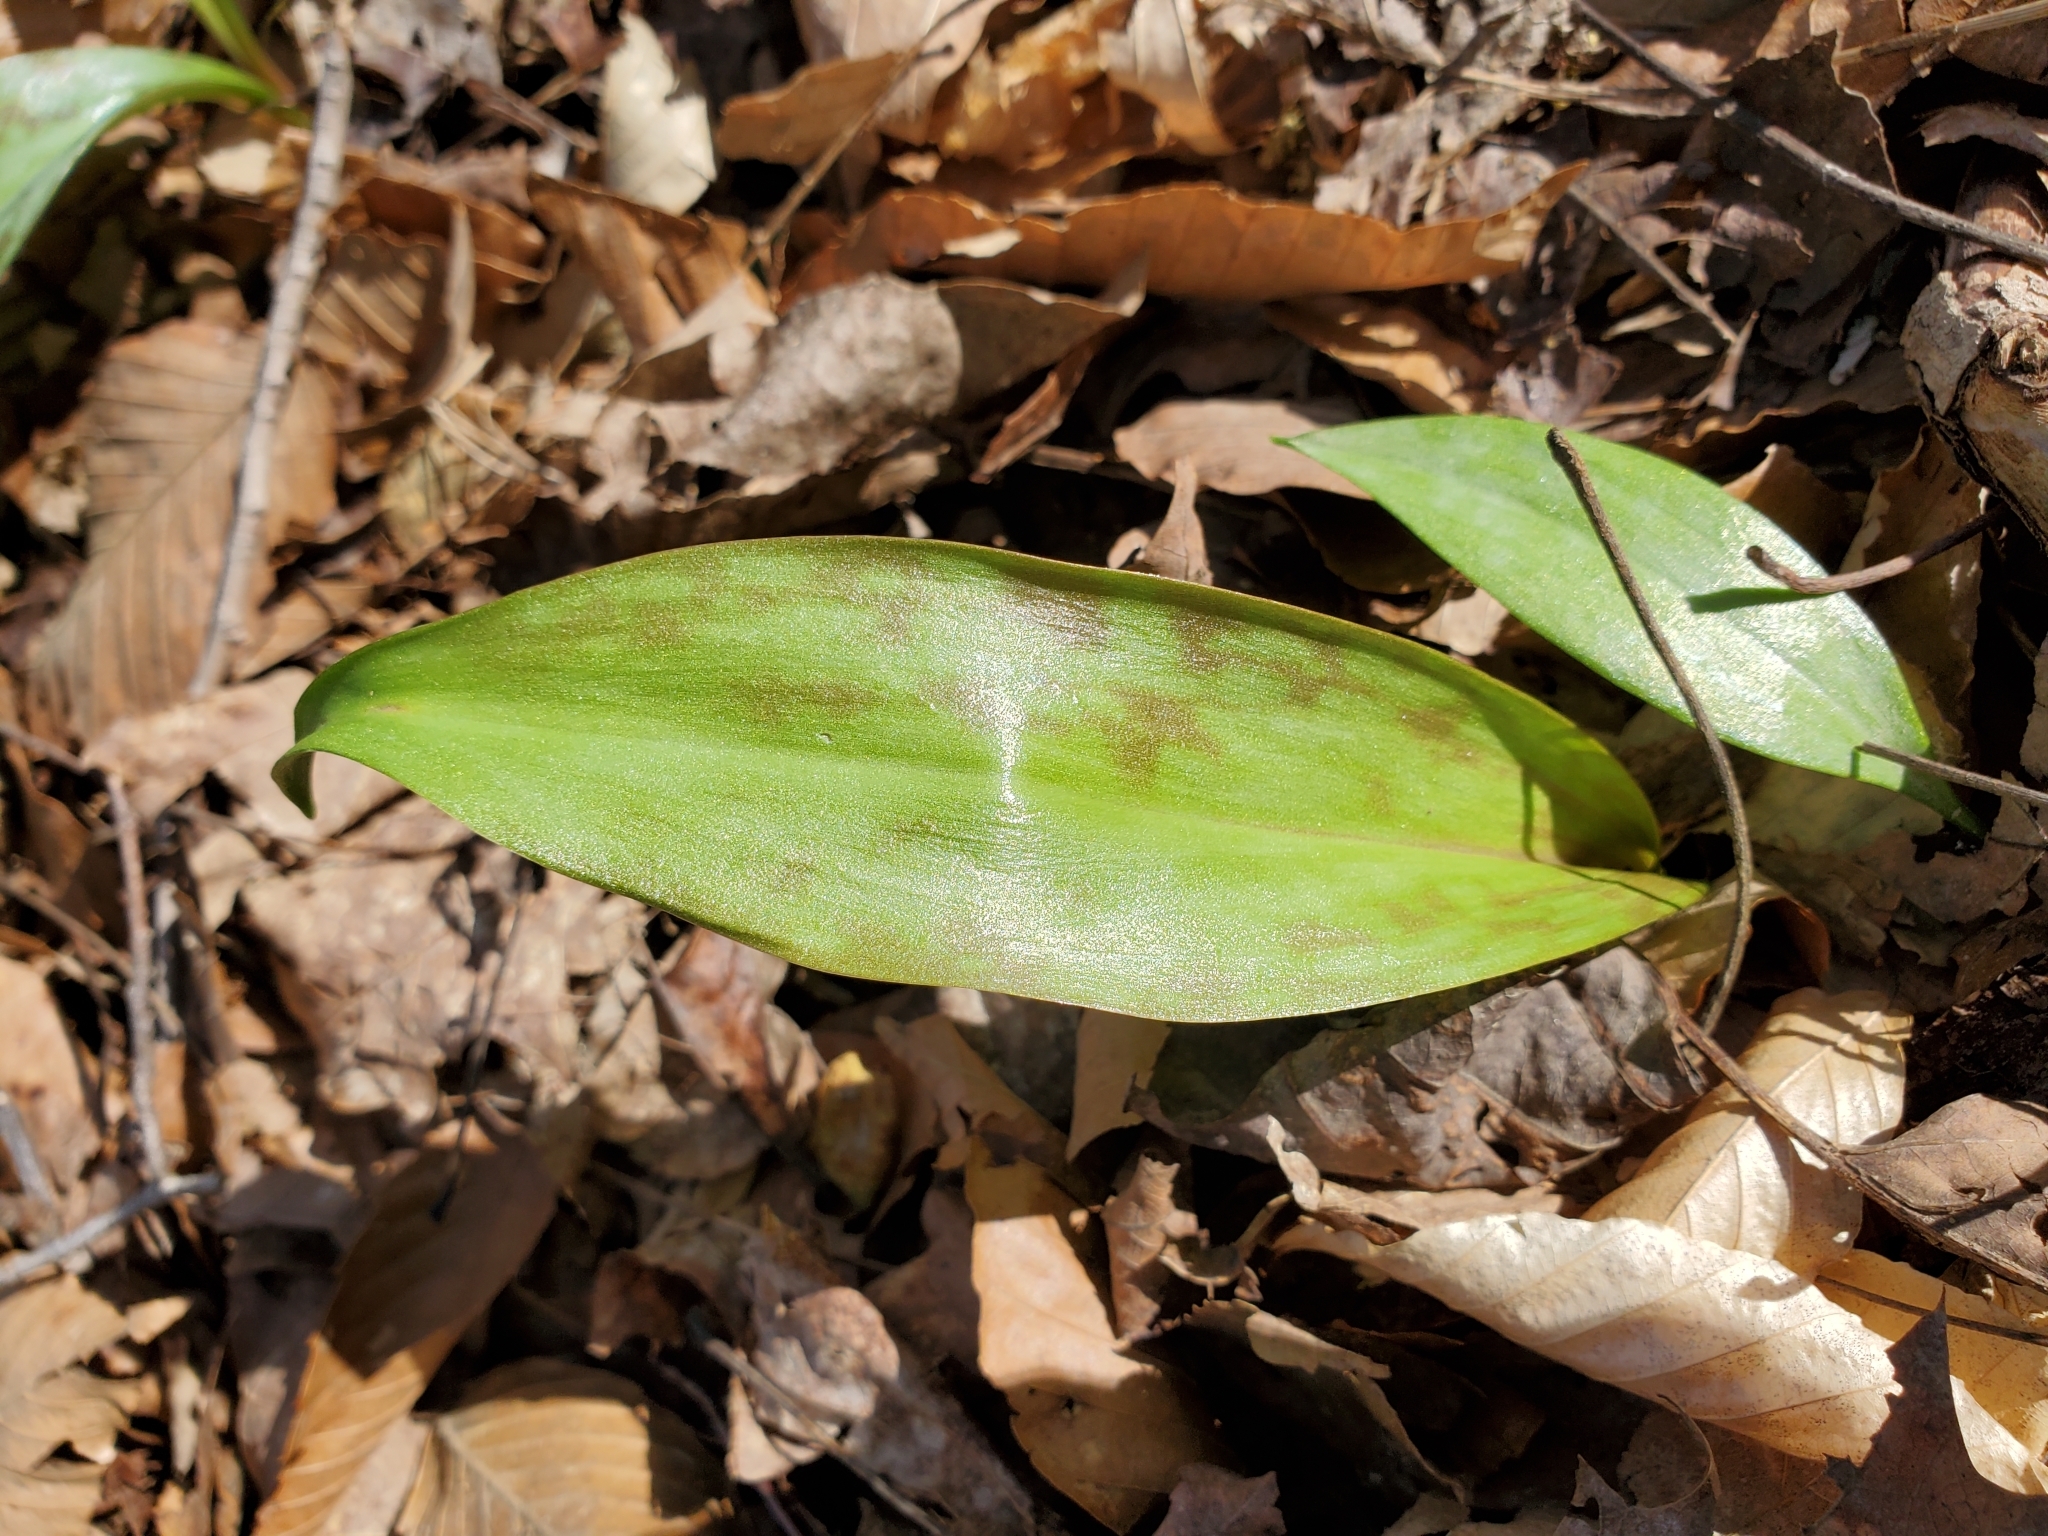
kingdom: Plantae
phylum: Tracheophyta
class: Liliopsida
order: Liliales
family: Liliaceae
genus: Erythronium
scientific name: Erythronium americanum
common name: Yellow adder's-tongue
